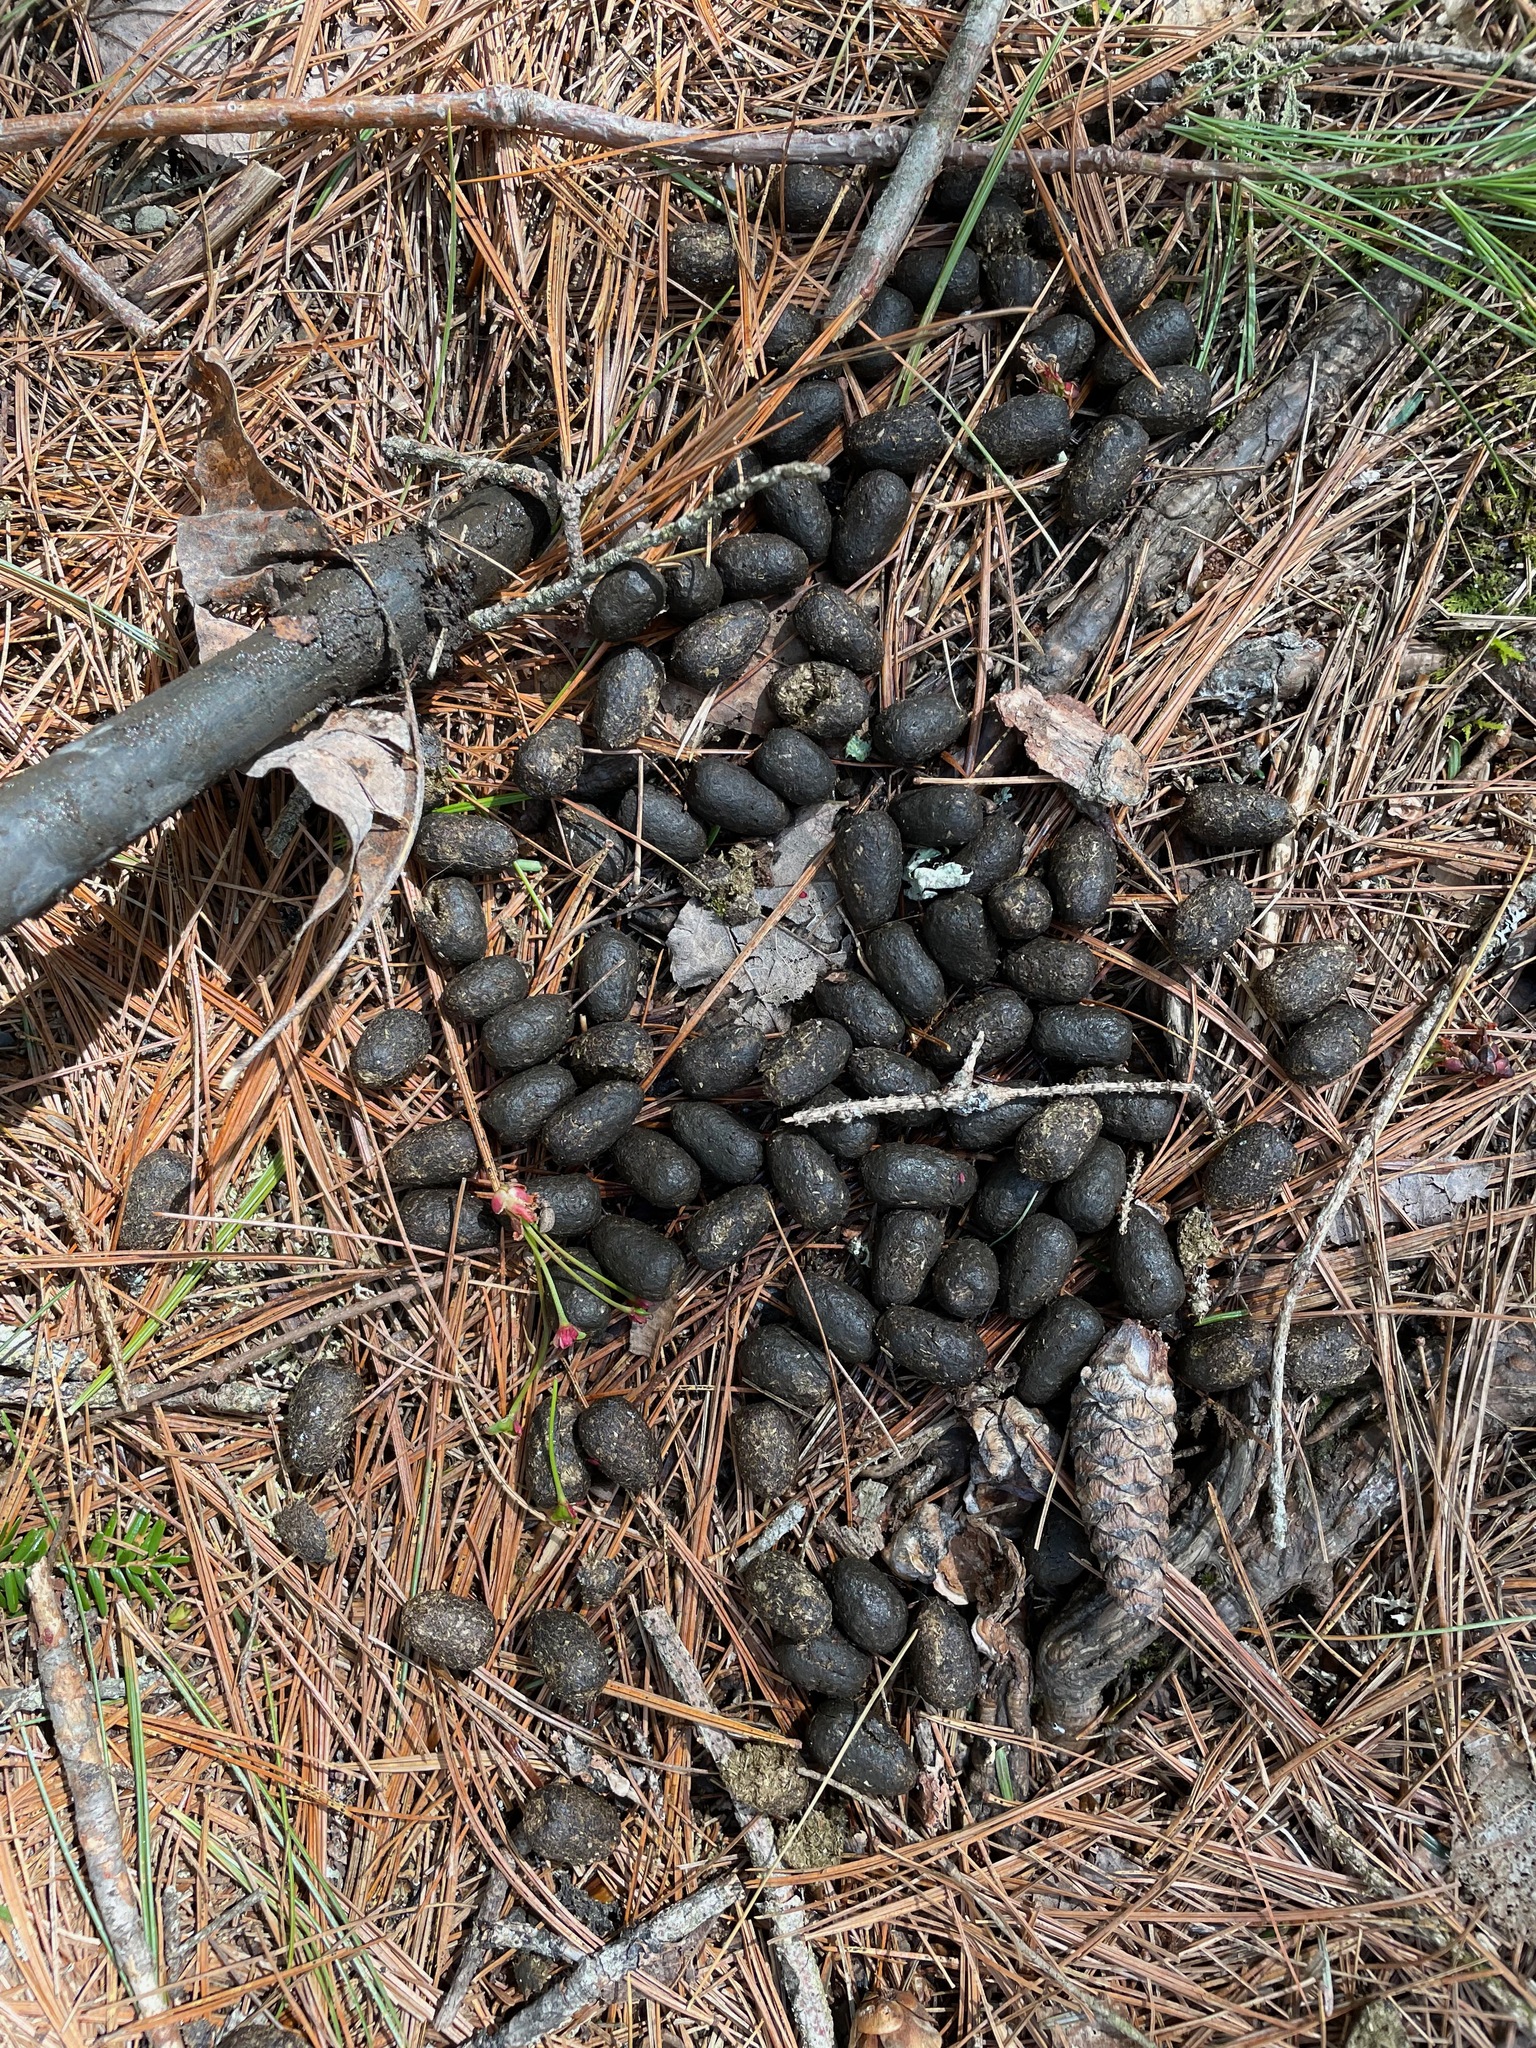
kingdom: Animalia
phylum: Chordata
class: Mammalia
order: Artiodactyla
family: Cervidae
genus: Odocoileus
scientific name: Odocoileus virginianus
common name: White-tailed deer
